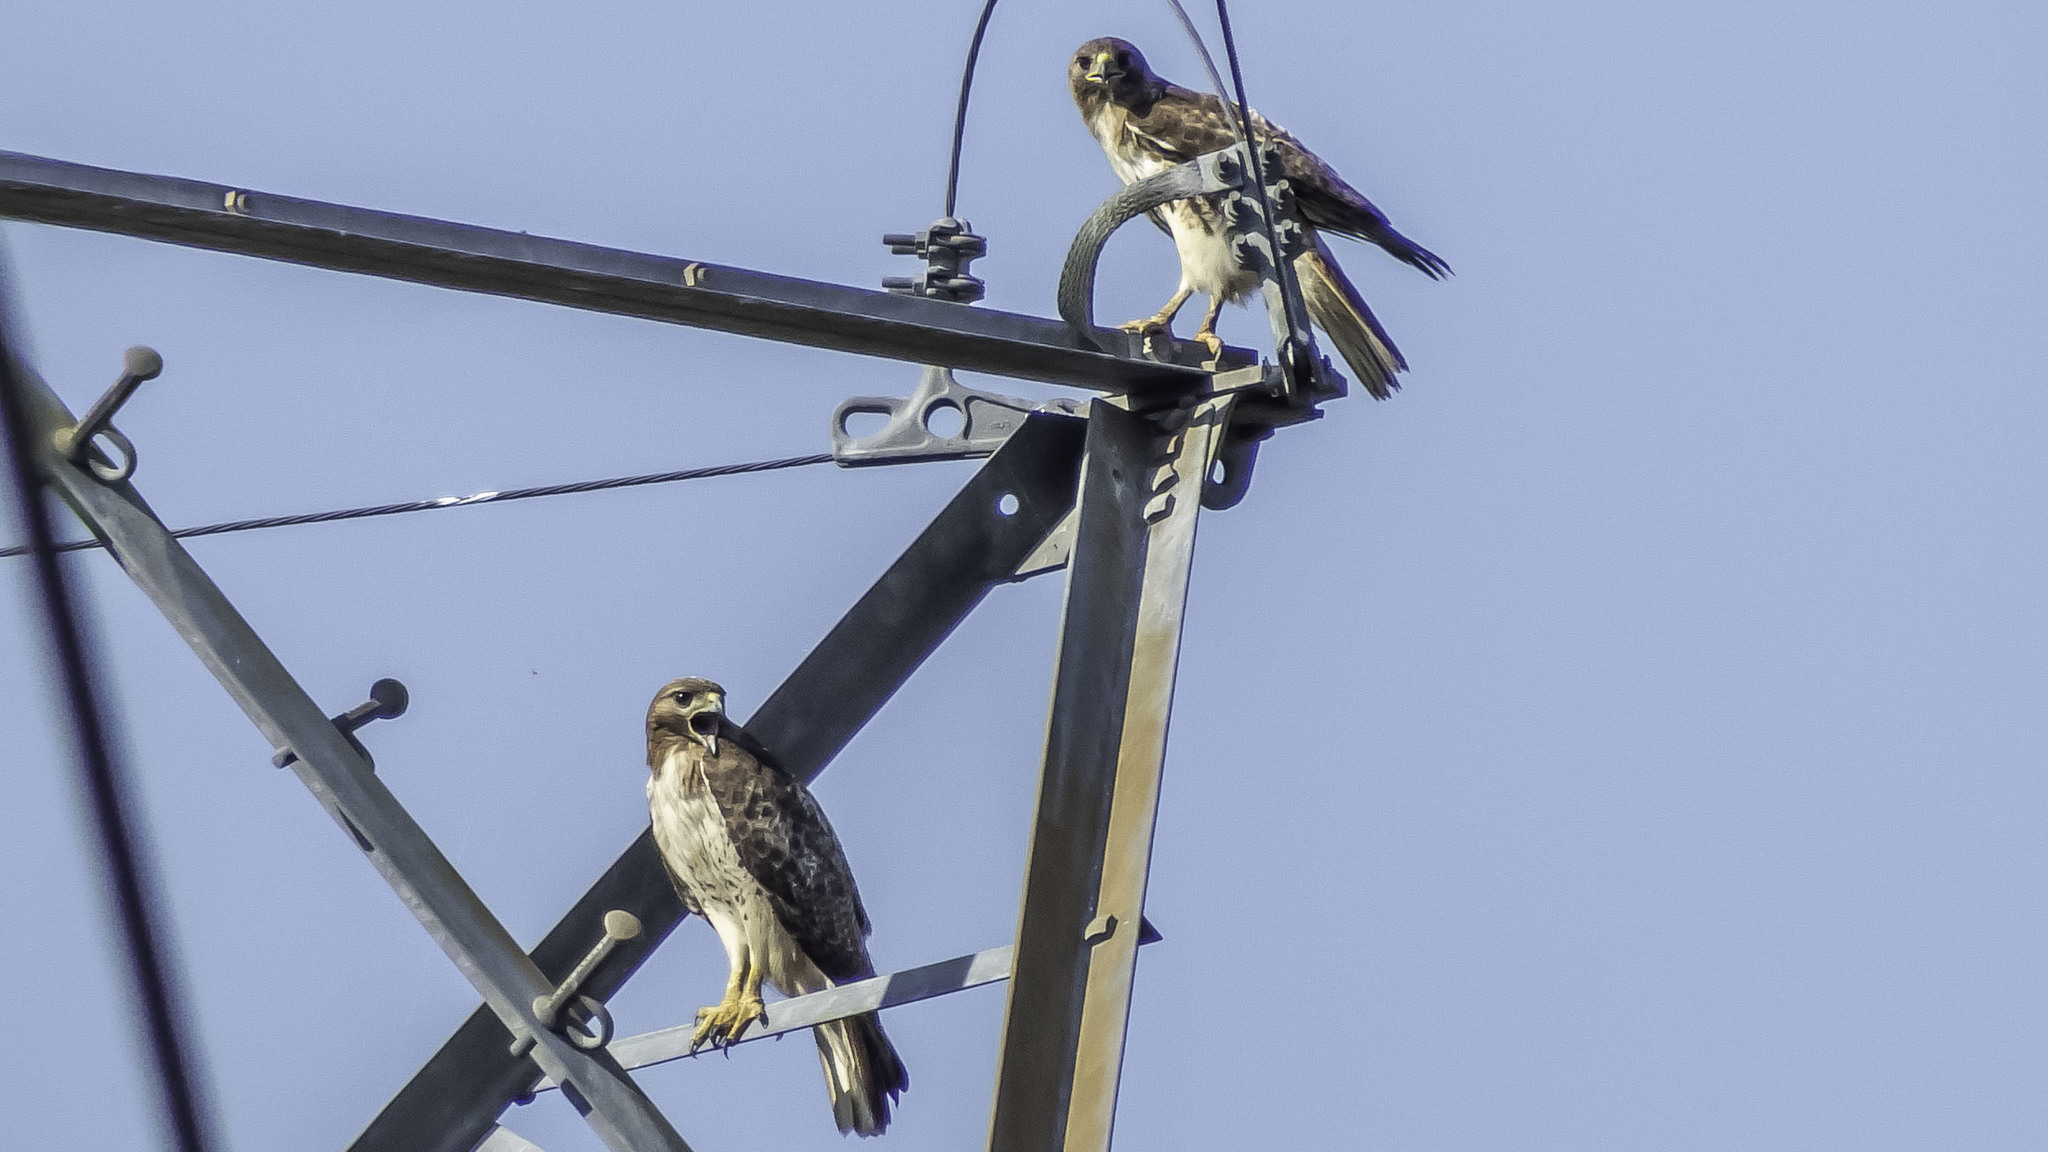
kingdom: Animalia
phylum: Chordata
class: Aves
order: Accipitriformes
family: Accipitridae
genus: Buteo
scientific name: Buteo jamaicensis
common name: Red-tailed hawk
